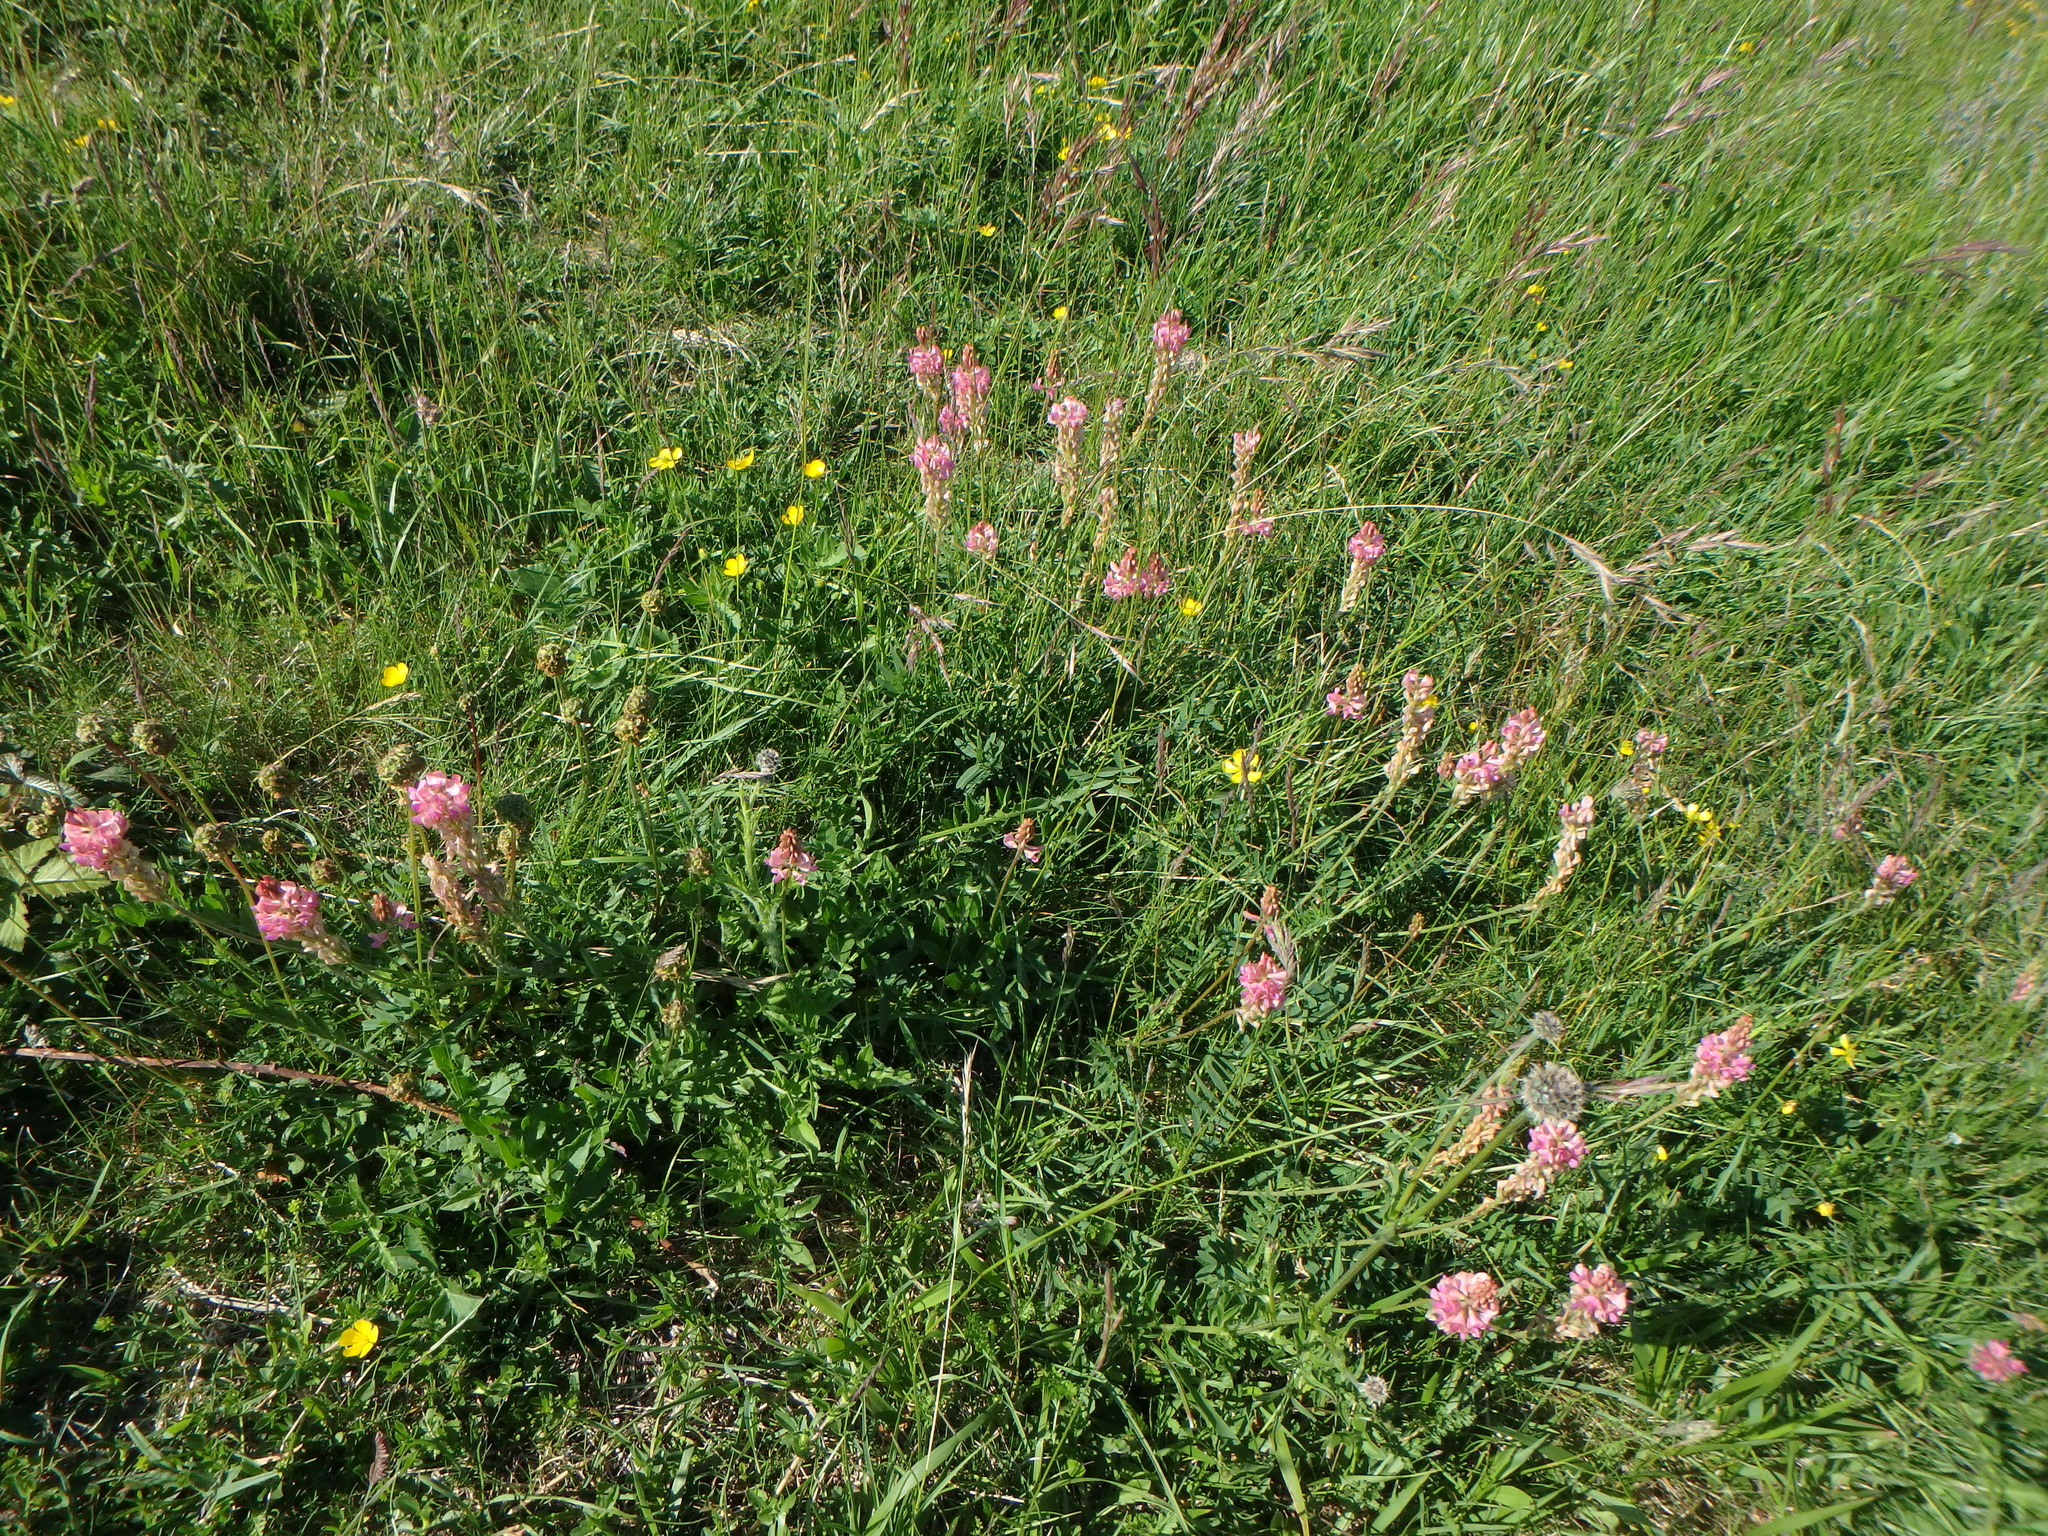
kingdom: Plantae
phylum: Tracheophyta
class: Magnoliopsida
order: Fabales
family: Fabaceae
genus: Onobrychis
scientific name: Onobrychis viciifolia
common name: Sainfoin
